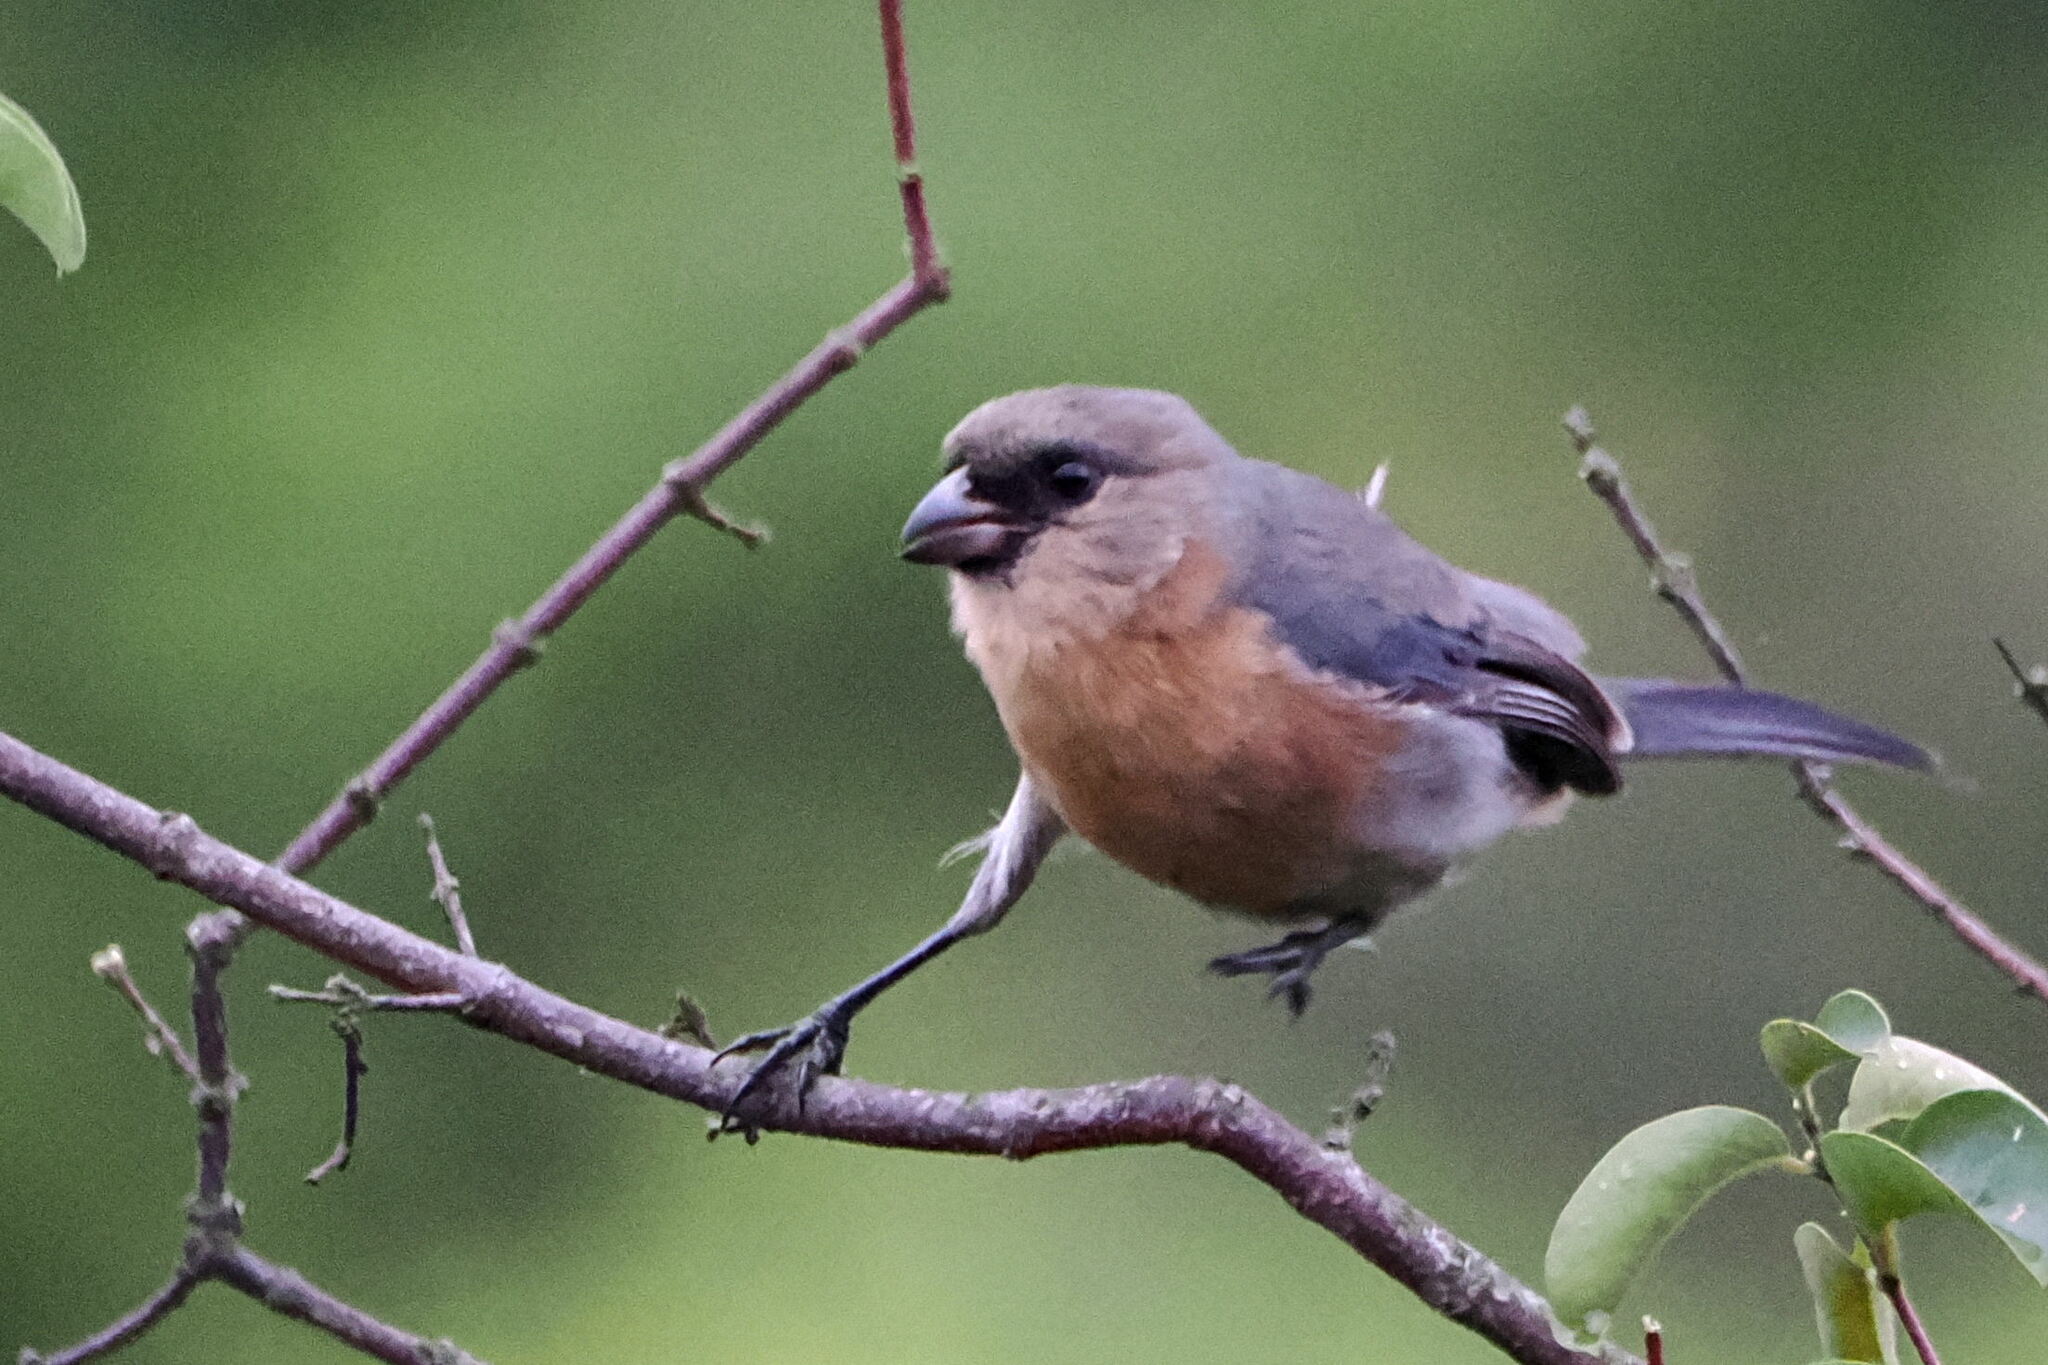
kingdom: Animalia
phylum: Chordata
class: Aves
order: Passeriformes
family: Thraupidae
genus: Schistochlamys
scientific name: Schistochlamys ruficapillus
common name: Cinnamon tanager
